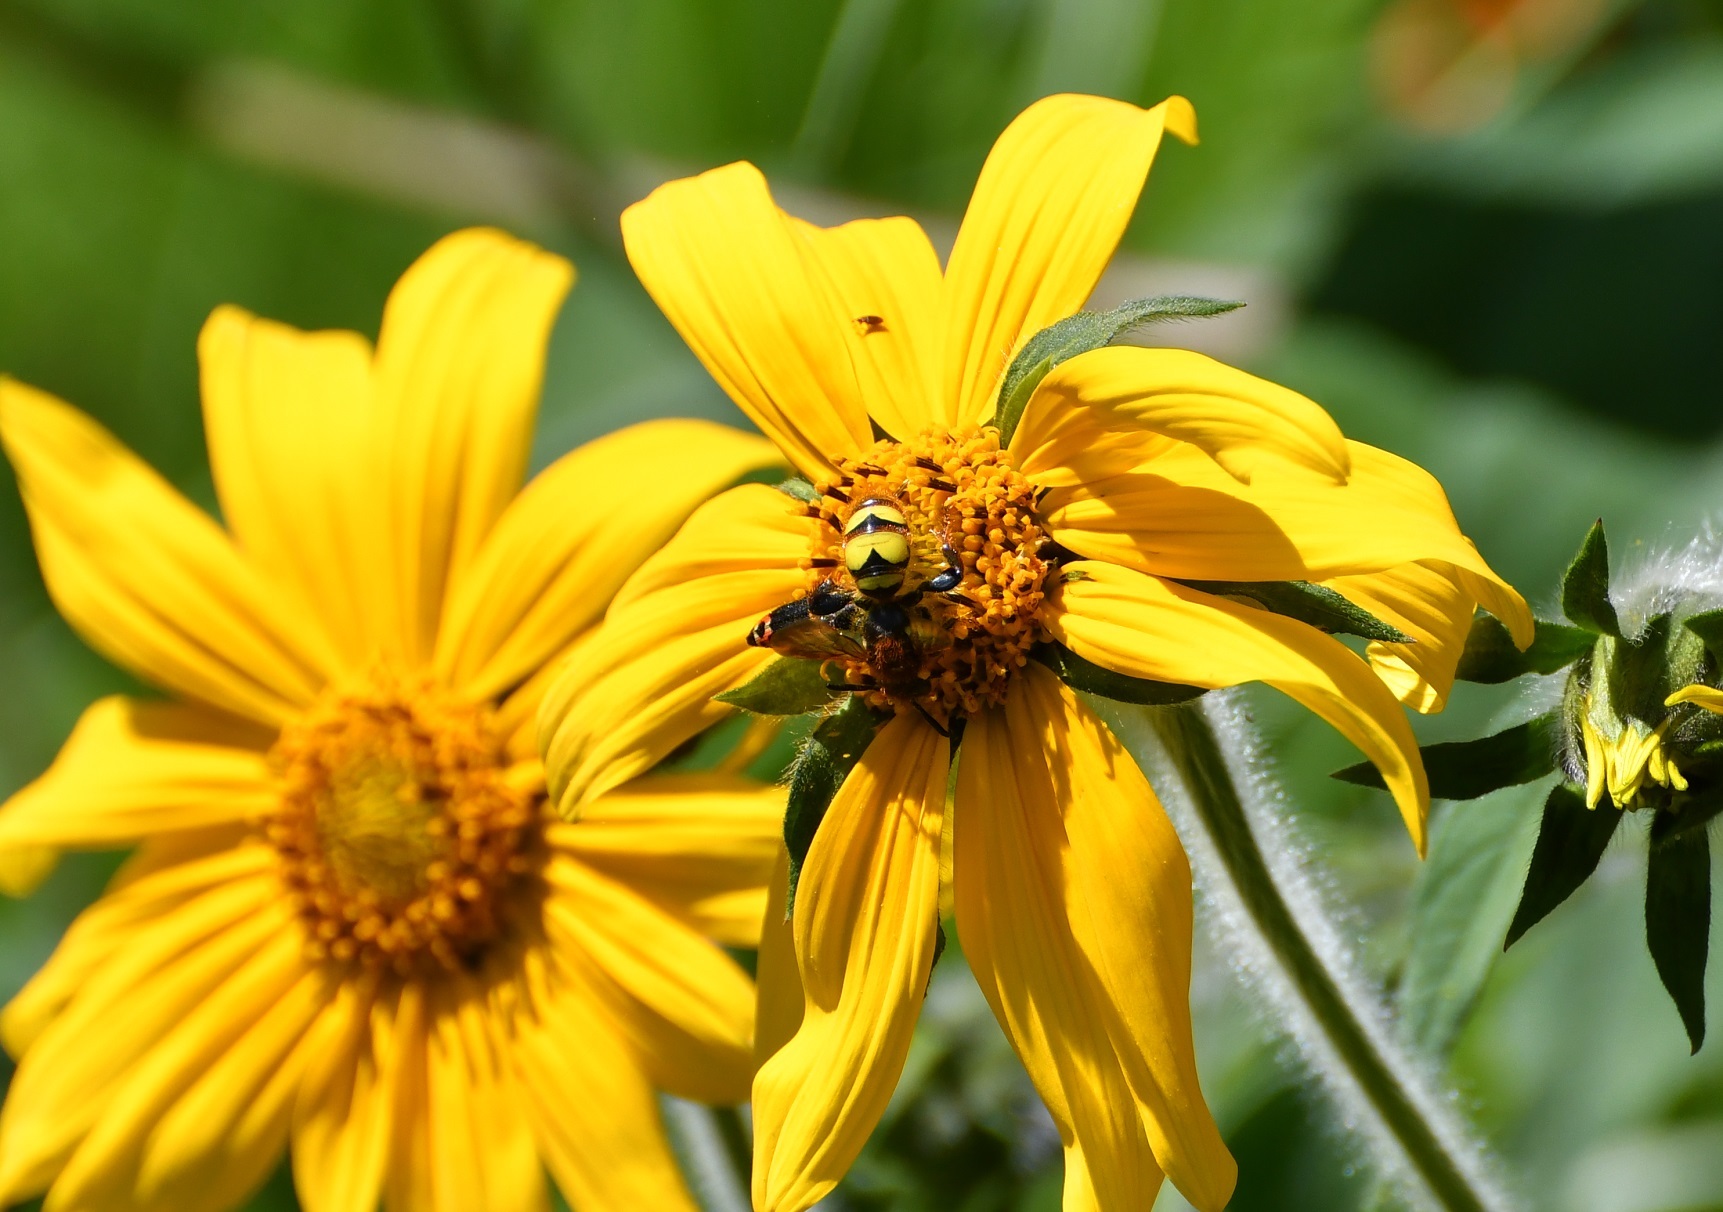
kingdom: Animalia
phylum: Arthropoda
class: Insecta
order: Hymenoptera
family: Scoliidae
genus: Xanthocampsomeris
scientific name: Xanthocampsomeris completa
